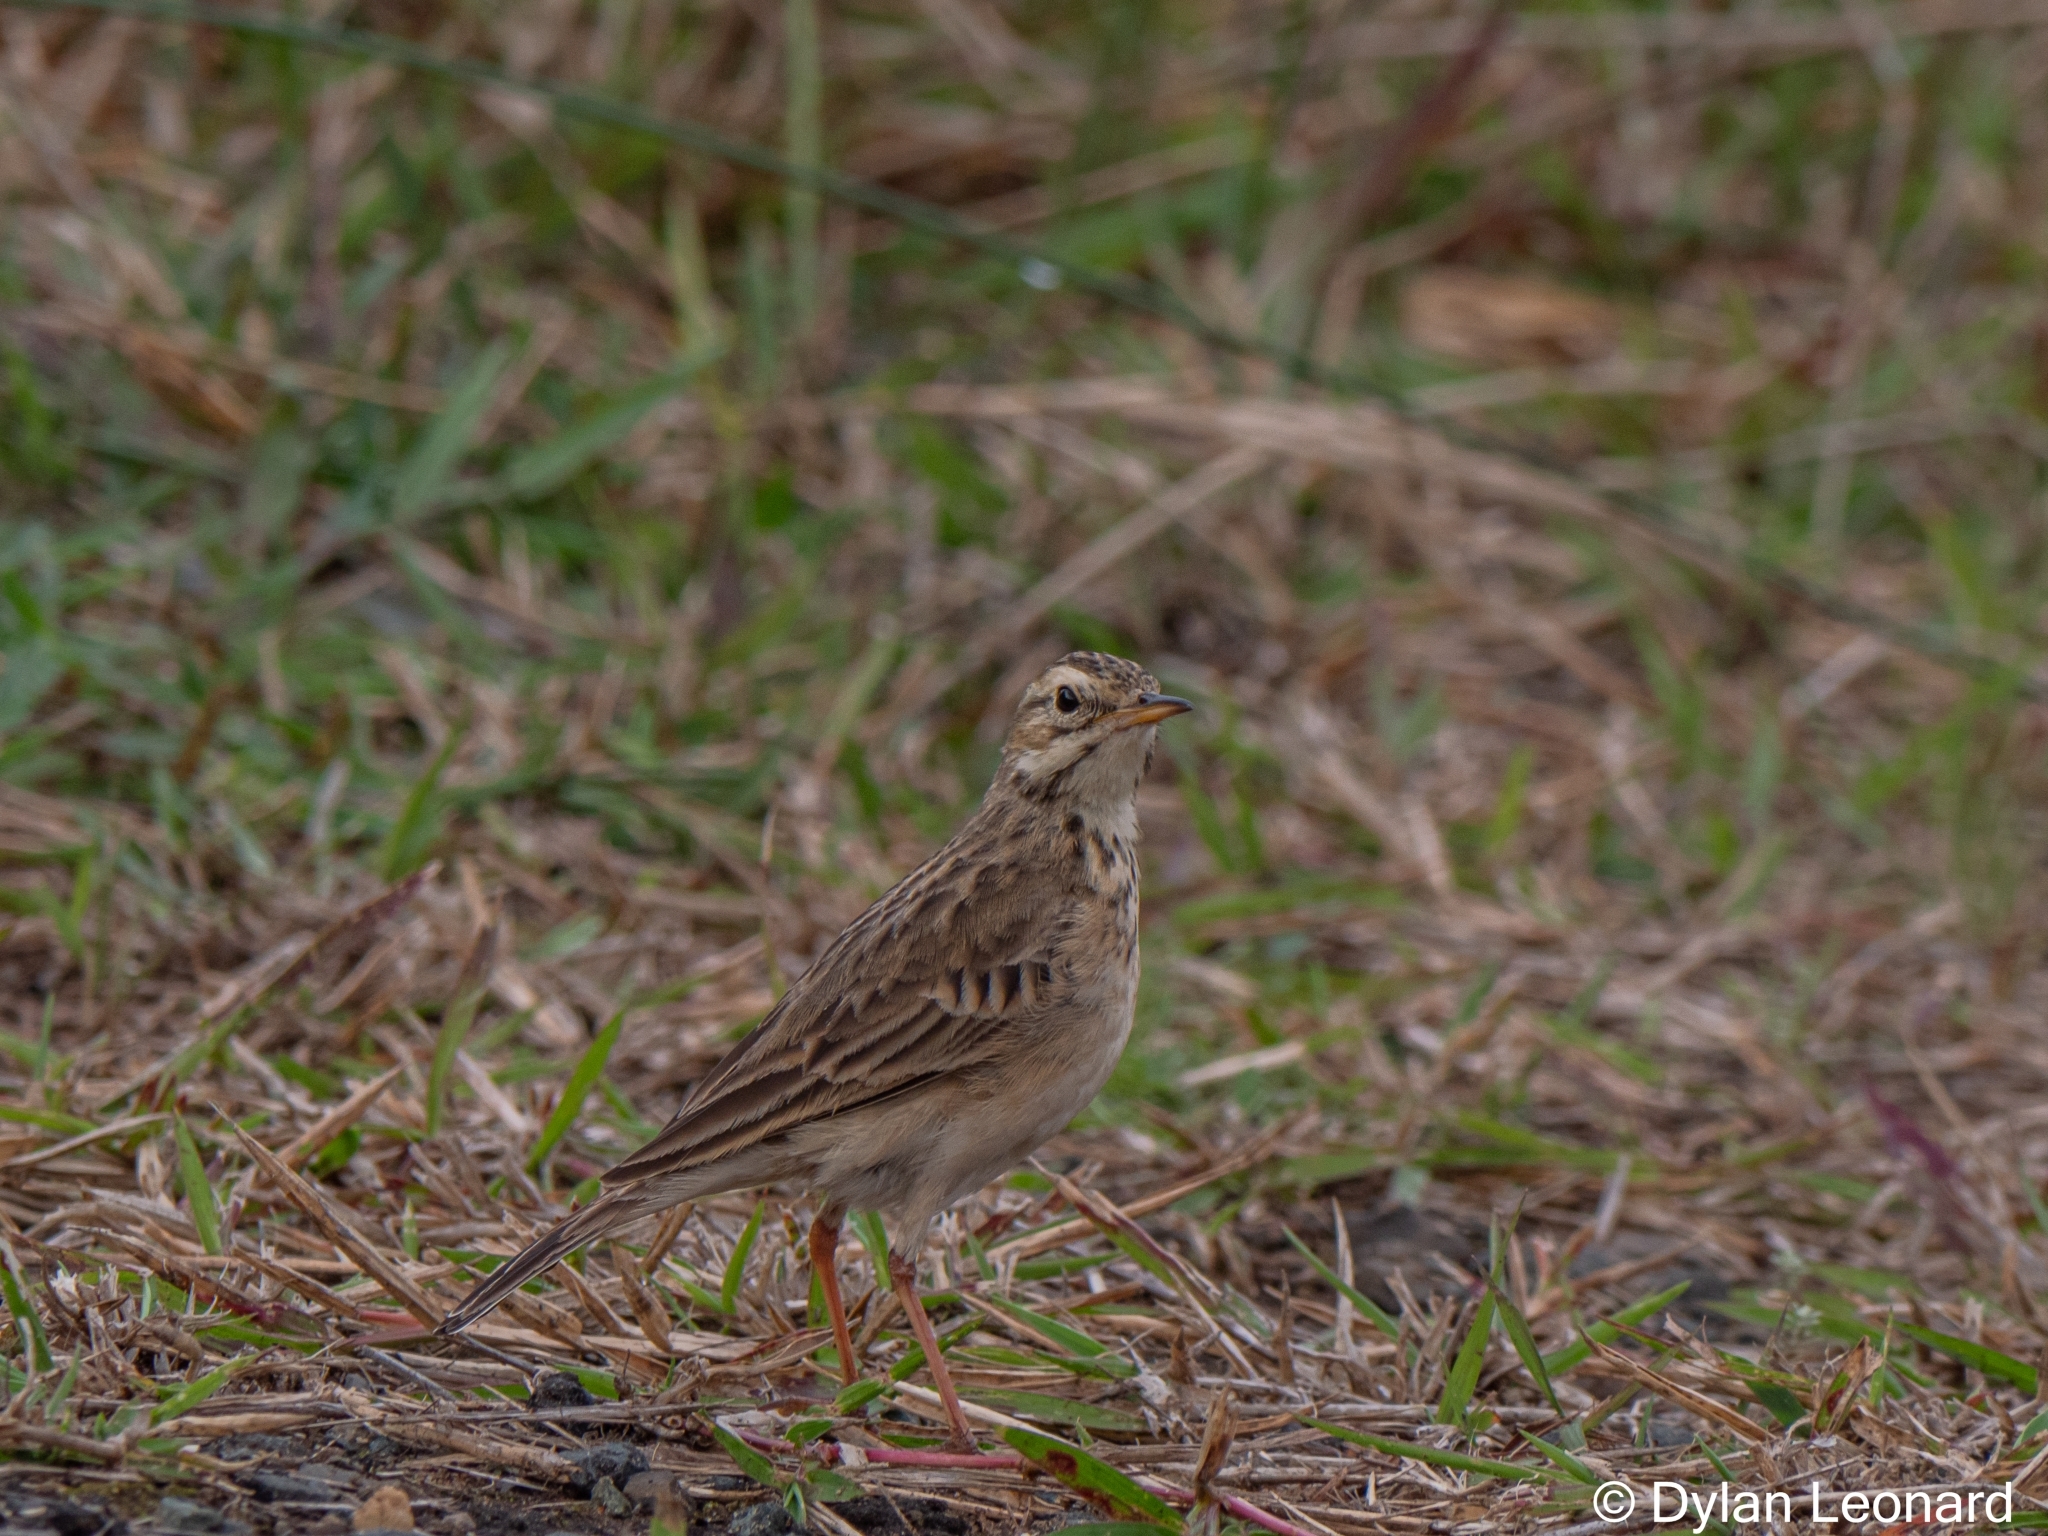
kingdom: Animalia
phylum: Chordata
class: Aves
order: Passeriformes
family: Motacillidae
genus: Anthus
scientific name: Anthus cinnamomeus
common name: African pipit
